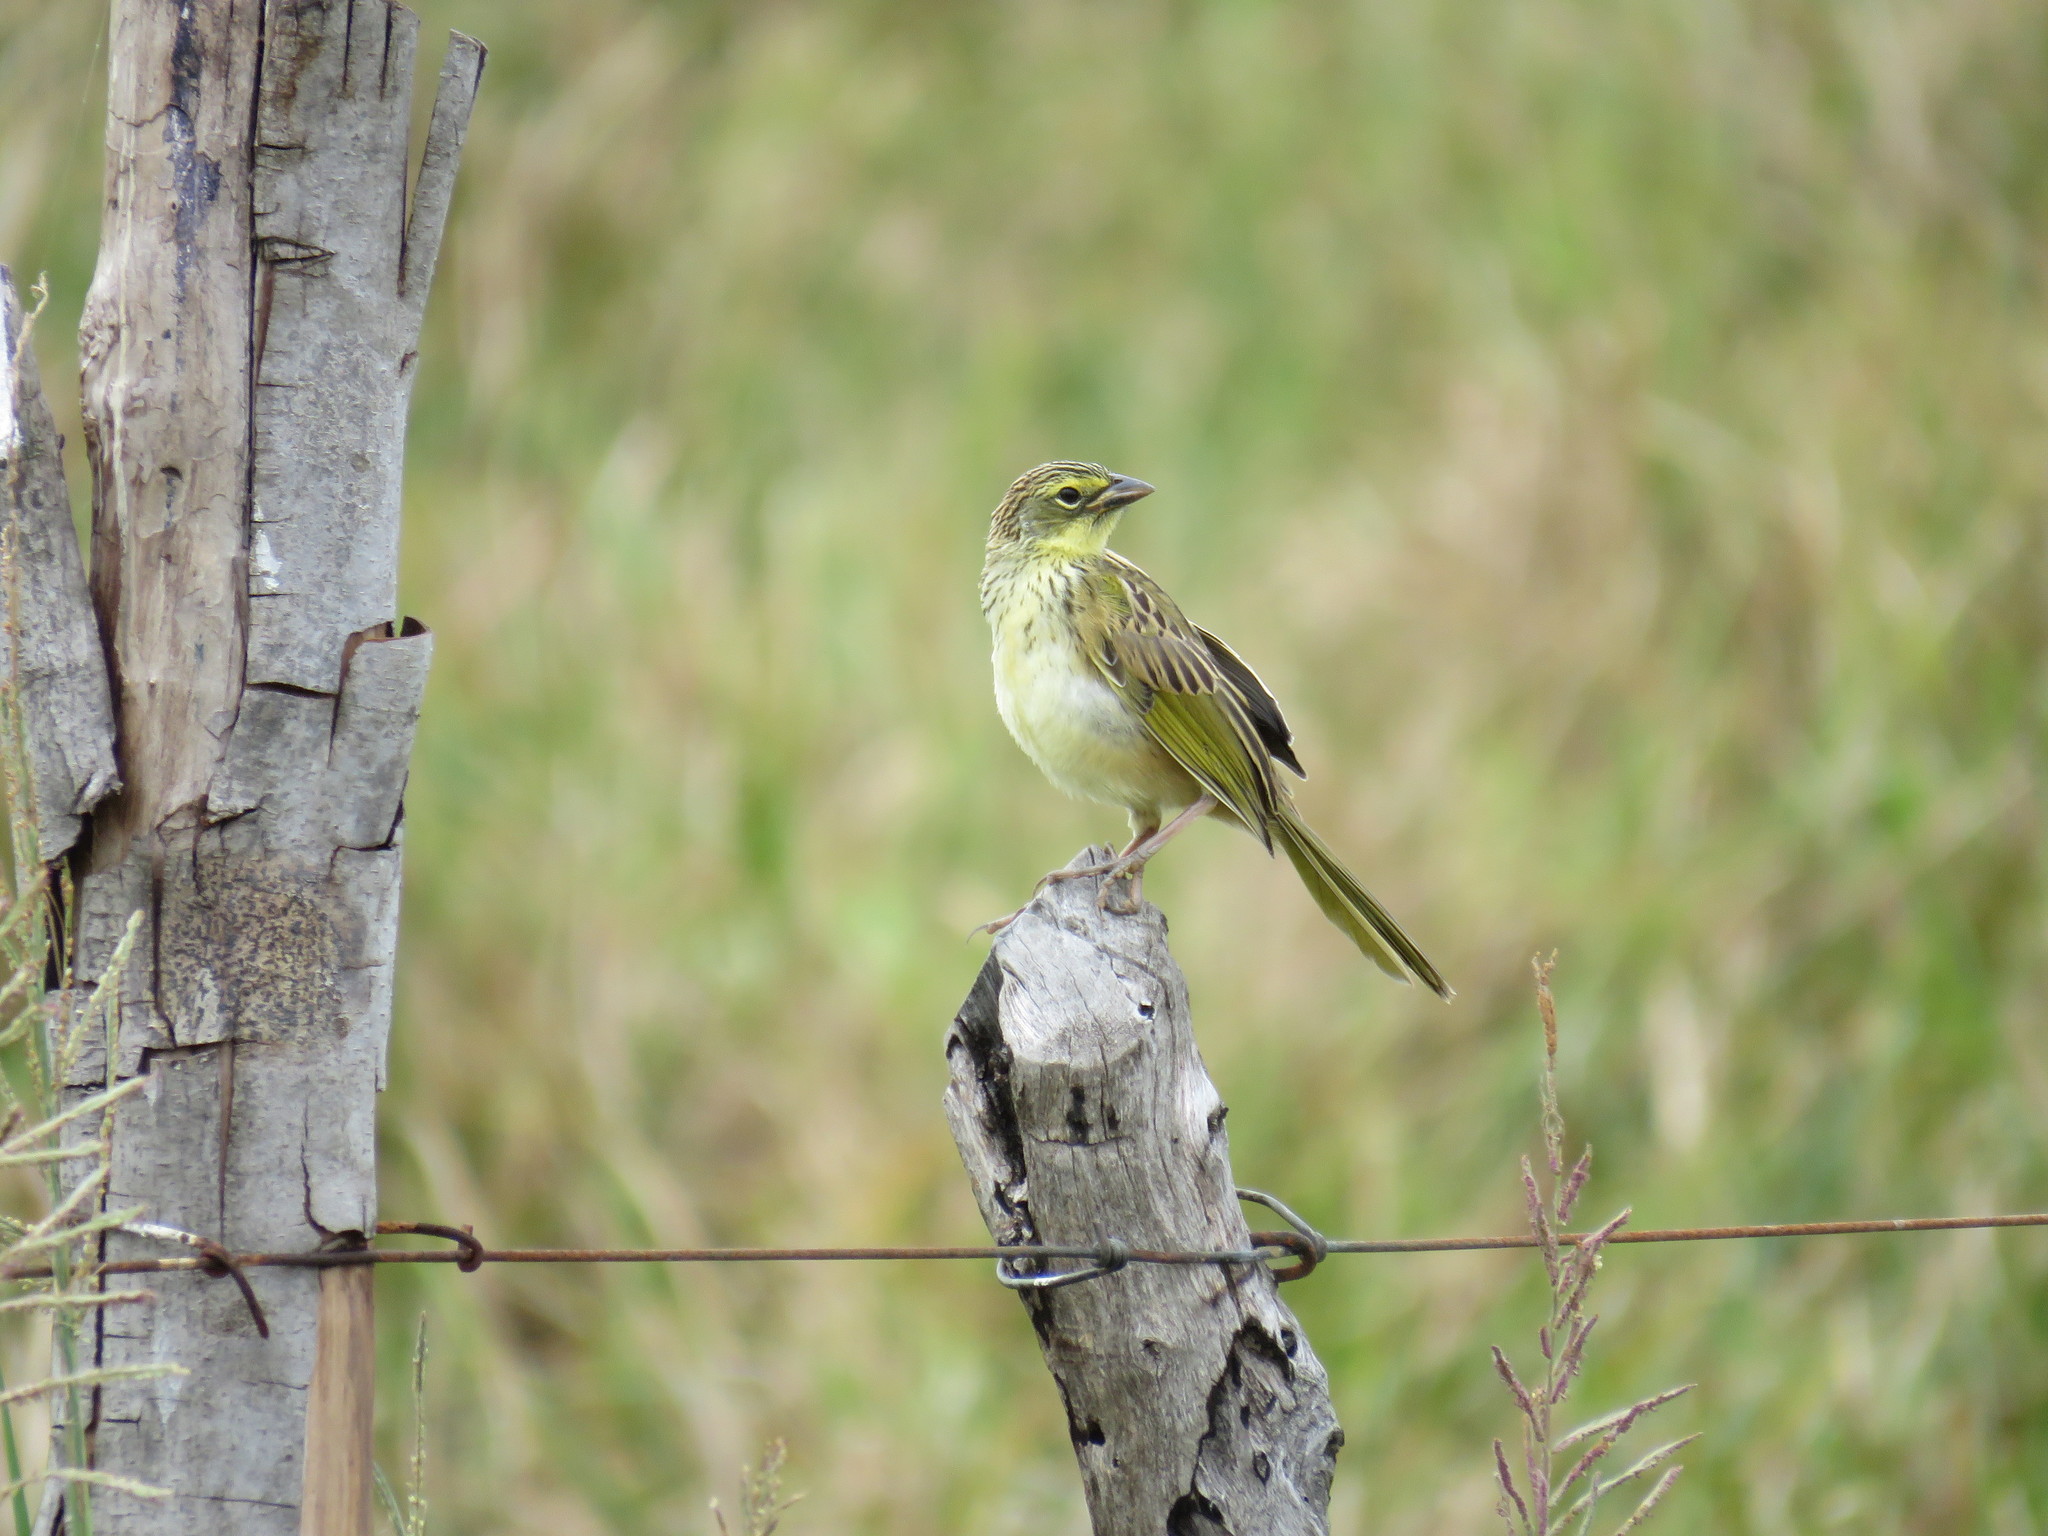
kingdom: Animalia
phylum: Chordata
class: Aves
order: Passeriformes
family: Thraupidae
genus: Embernagra
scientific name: Embernagra platensis
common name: Pampa finch
